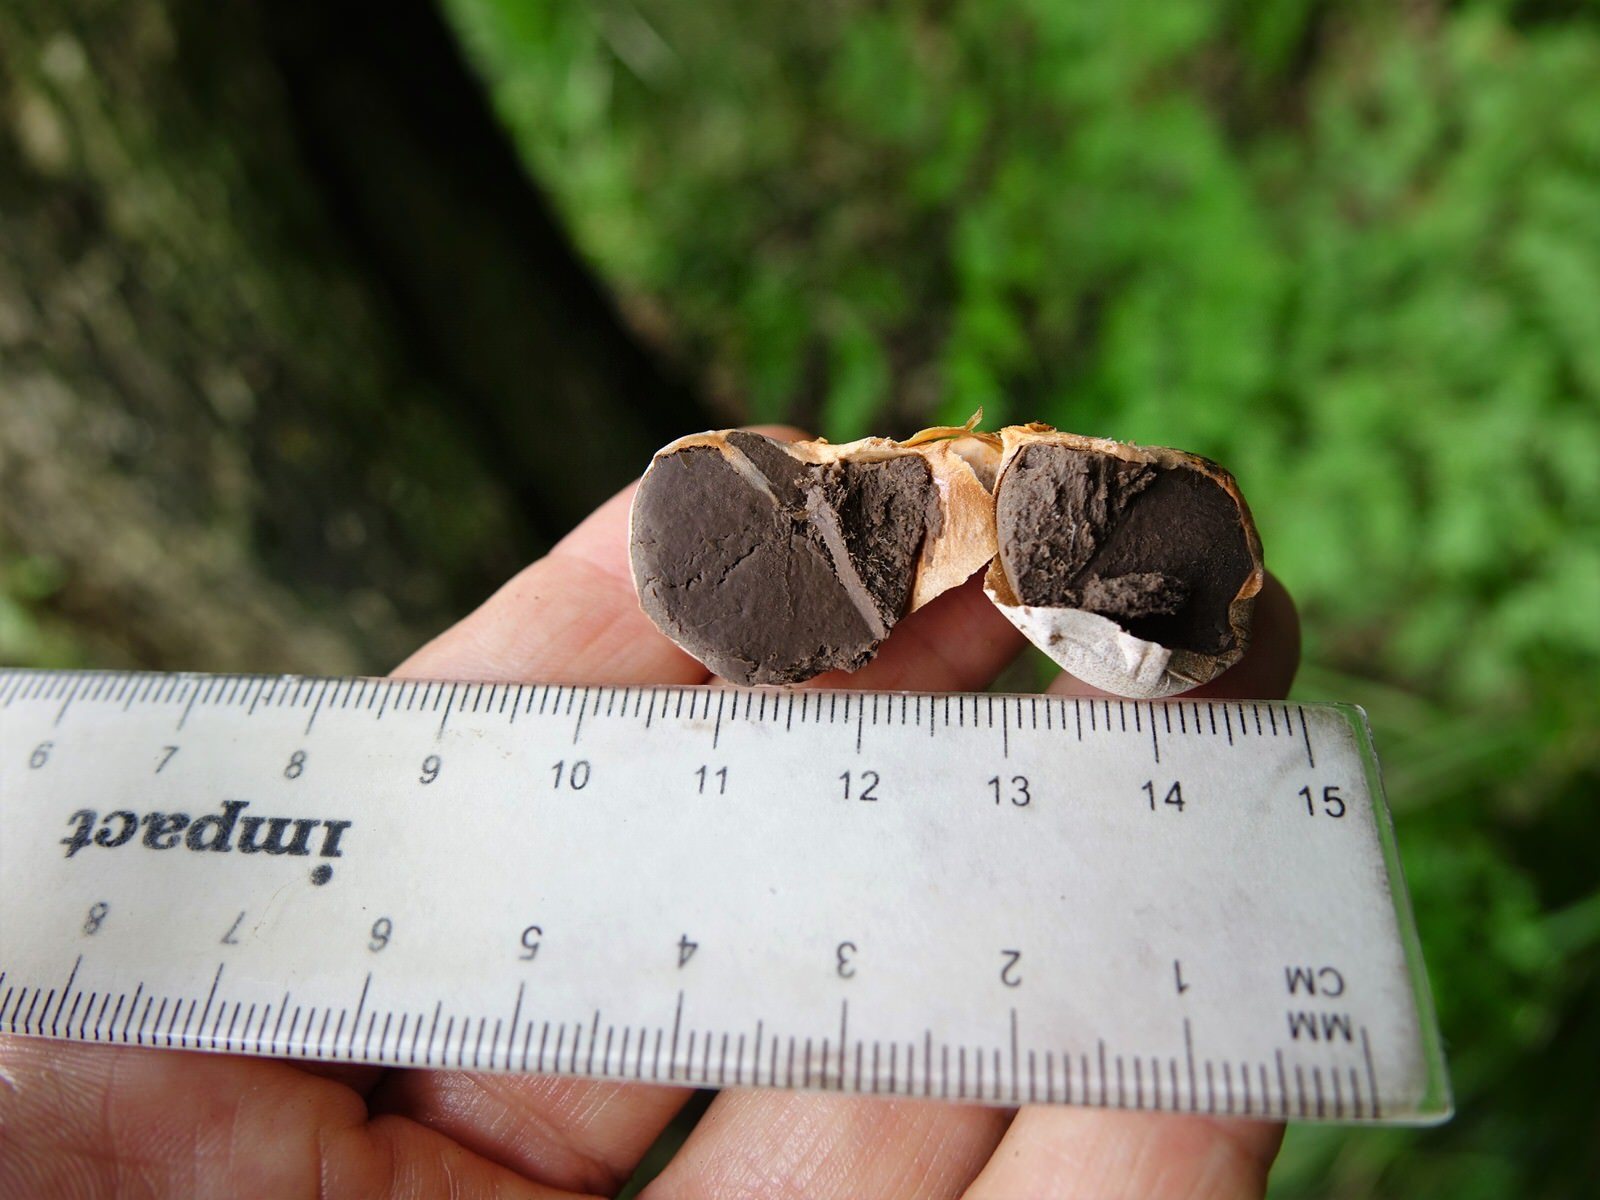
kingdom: Protozoa
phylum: Mycetozoa
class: Myxomycetes
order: Cribrariales
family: Tubiferaceae
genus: Lycogala
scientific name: Lycogala epidendrum
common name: Wolf's milk
